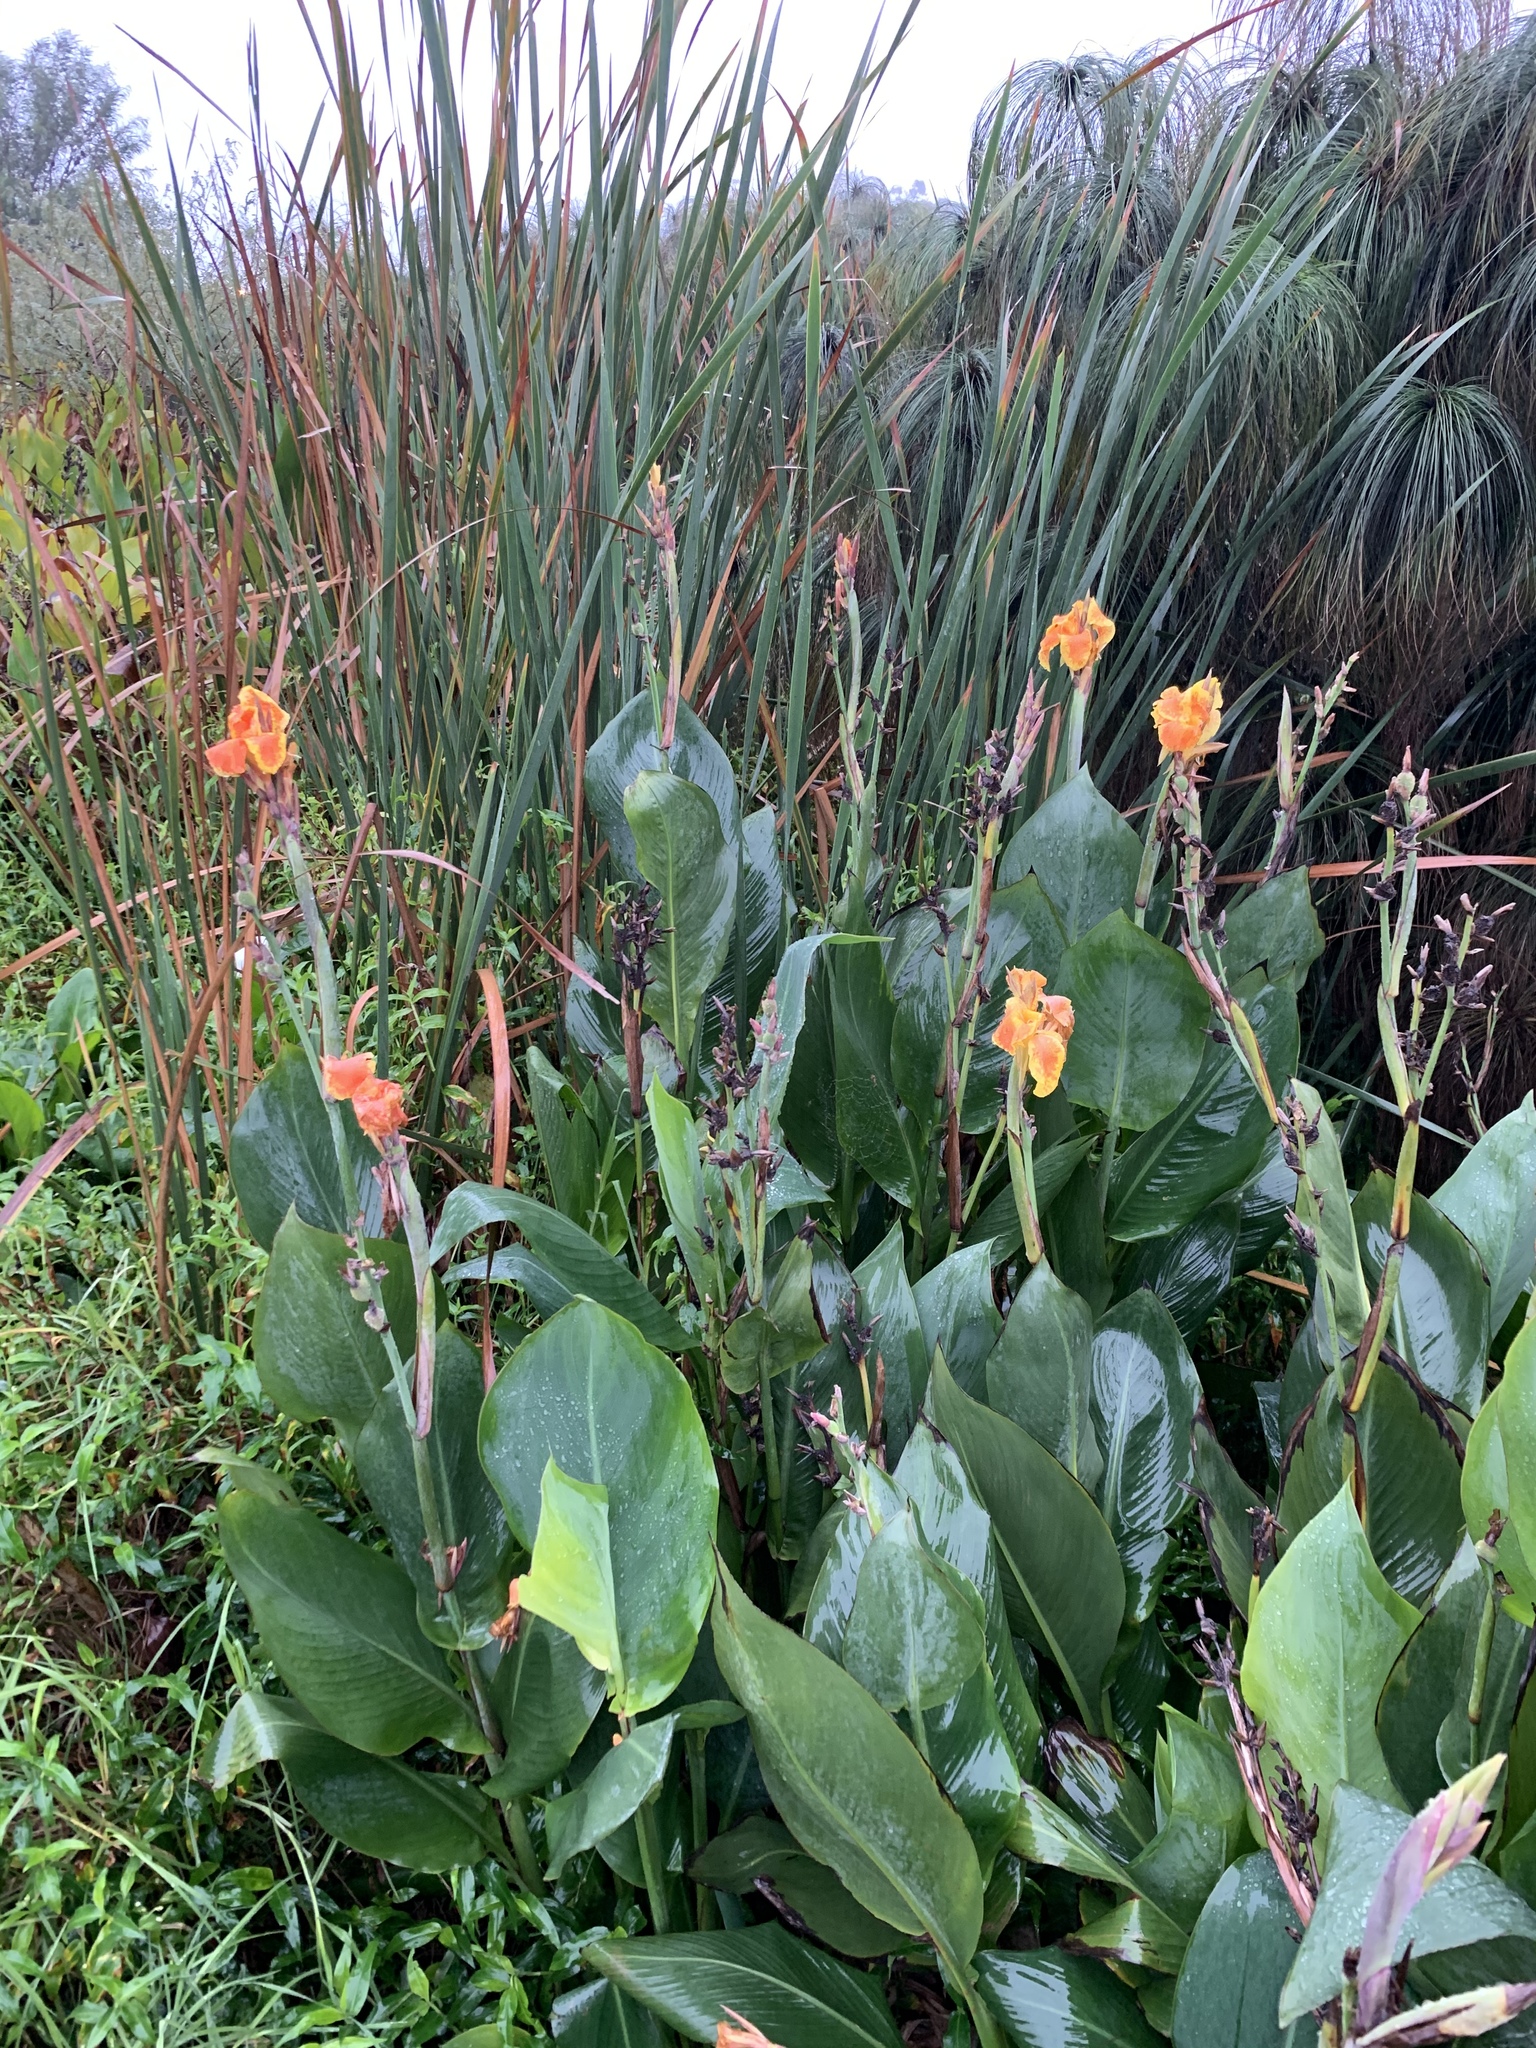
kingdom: Plantae
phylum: Tracheophyta
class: Liliopsida
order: Zingiberales
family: Cannaceae
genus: Canna
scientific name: Canna hybrida
